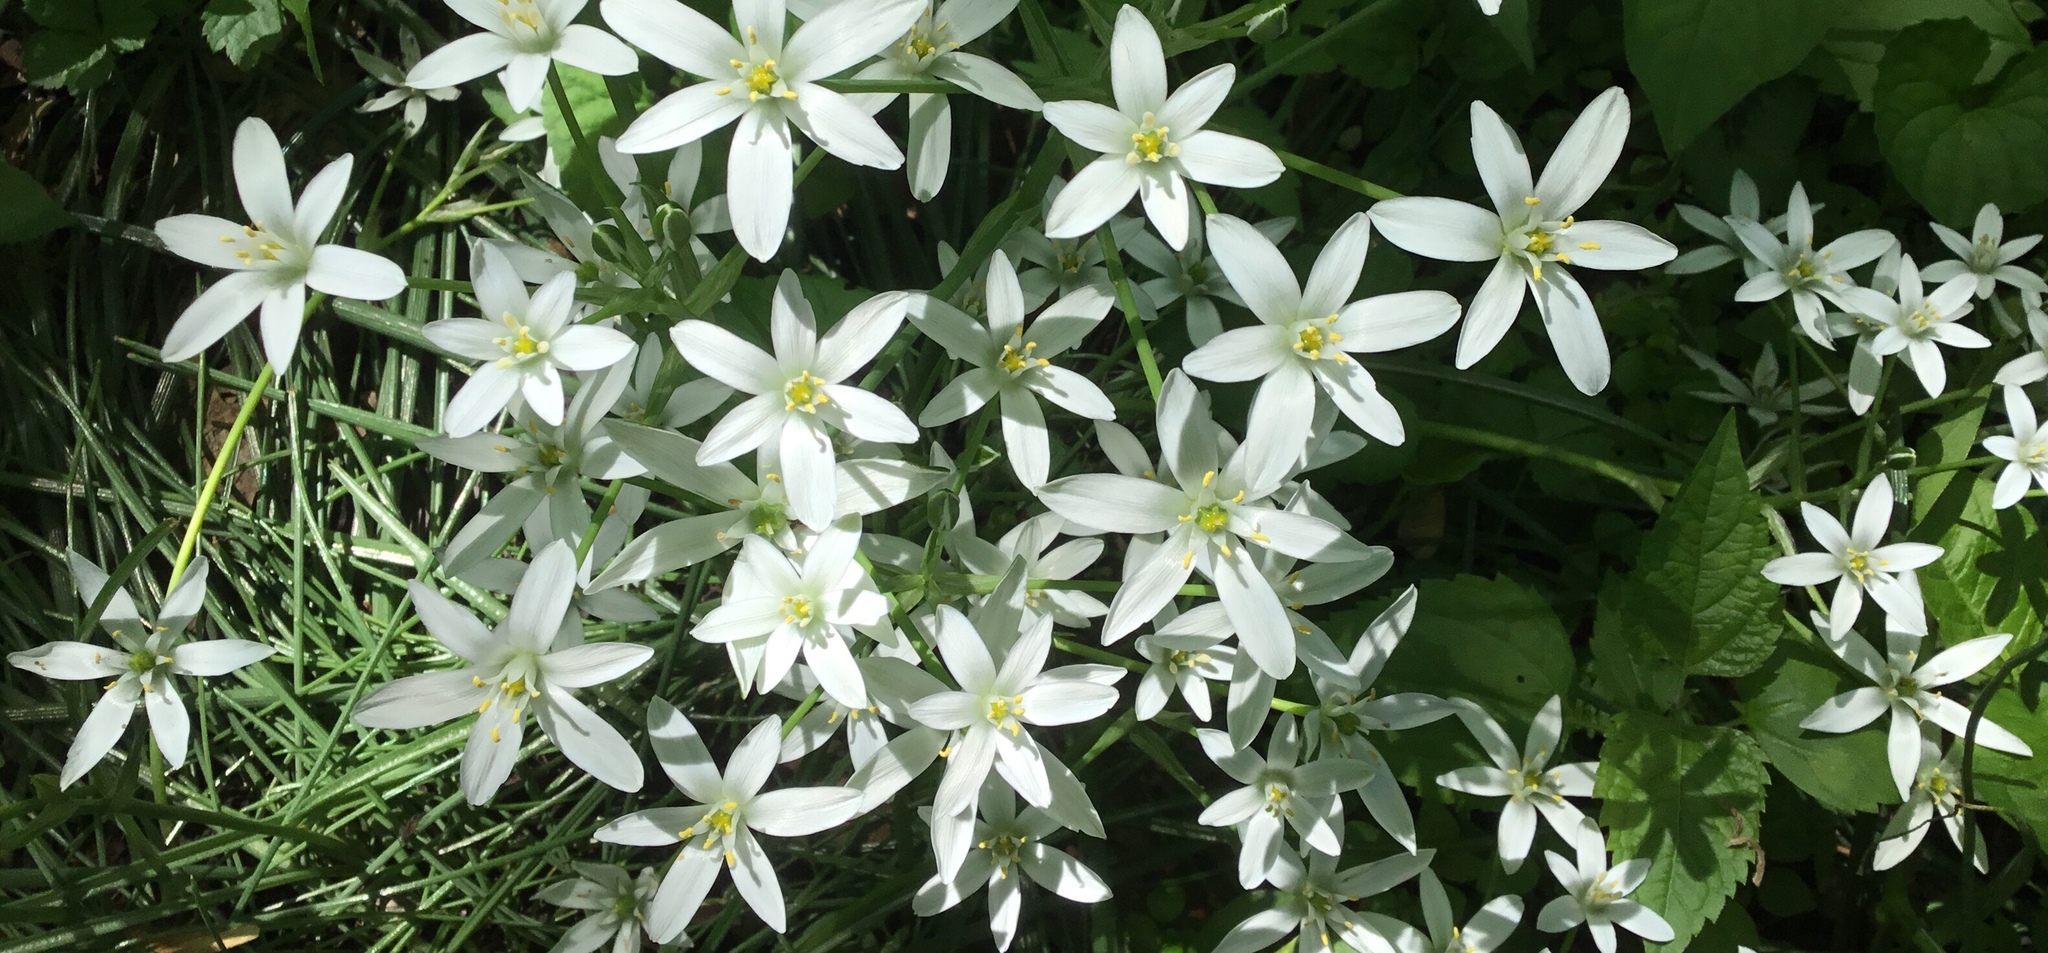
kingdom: Plantae
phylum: Tracheophyta
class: Liliopsida
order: Asparagales
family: Asparagaceae
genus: Ornithogalum
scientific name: Ornithogalum umbellatum
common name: Garden star-of-bethlehem
